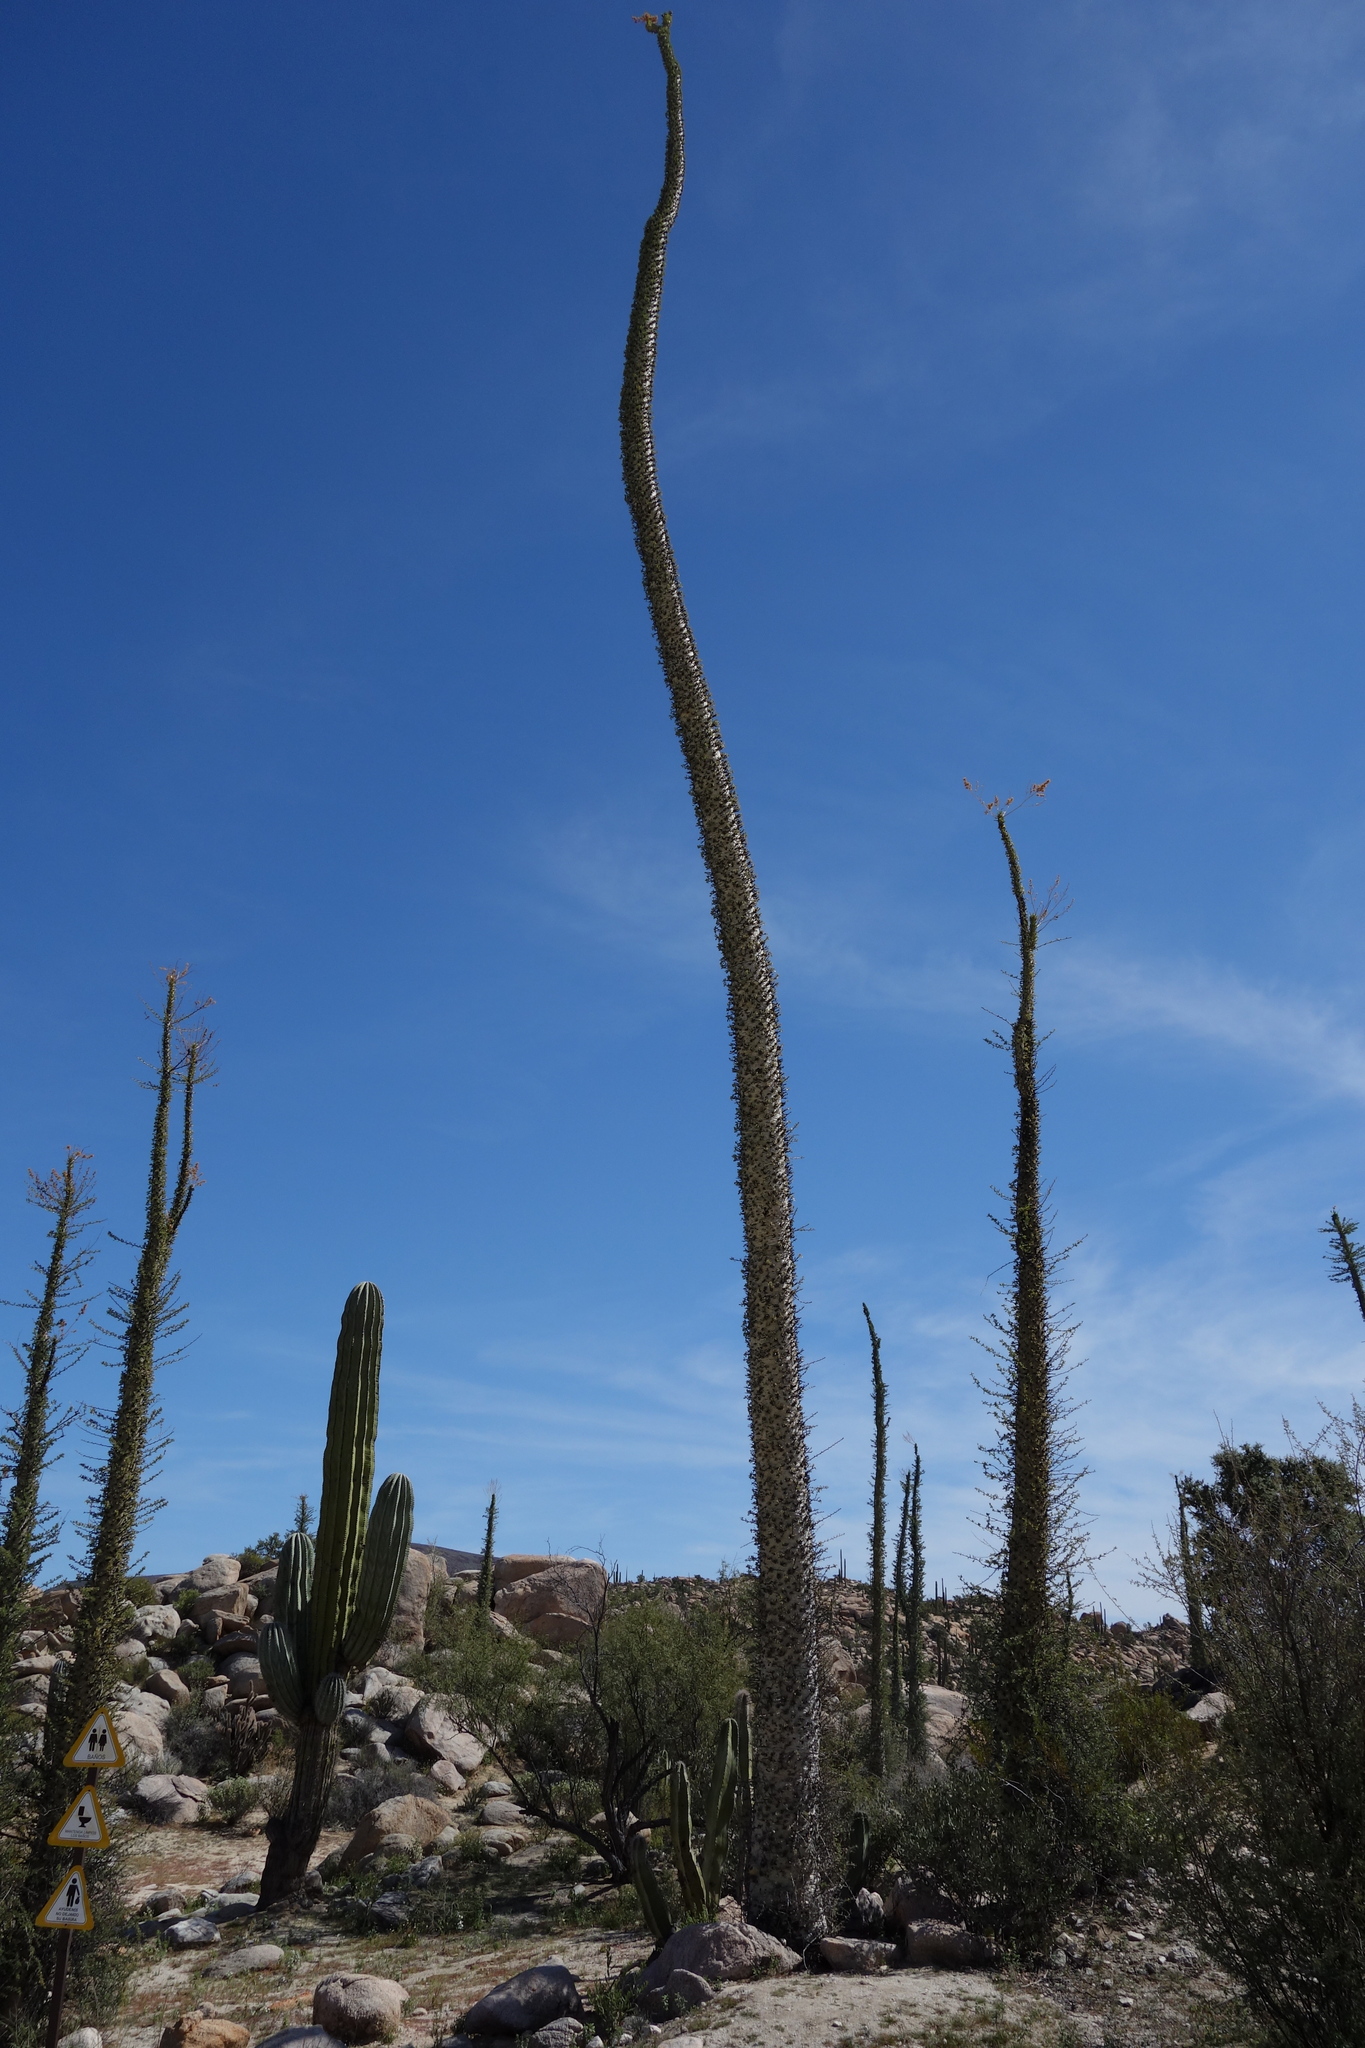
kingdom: Plantae
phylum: Tracheophyta
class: Magnoliopsida
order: Ericales
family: Fouquieriaceae
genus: Fouquieria
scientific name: Fouquieria columnaris
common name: Boojumtree
